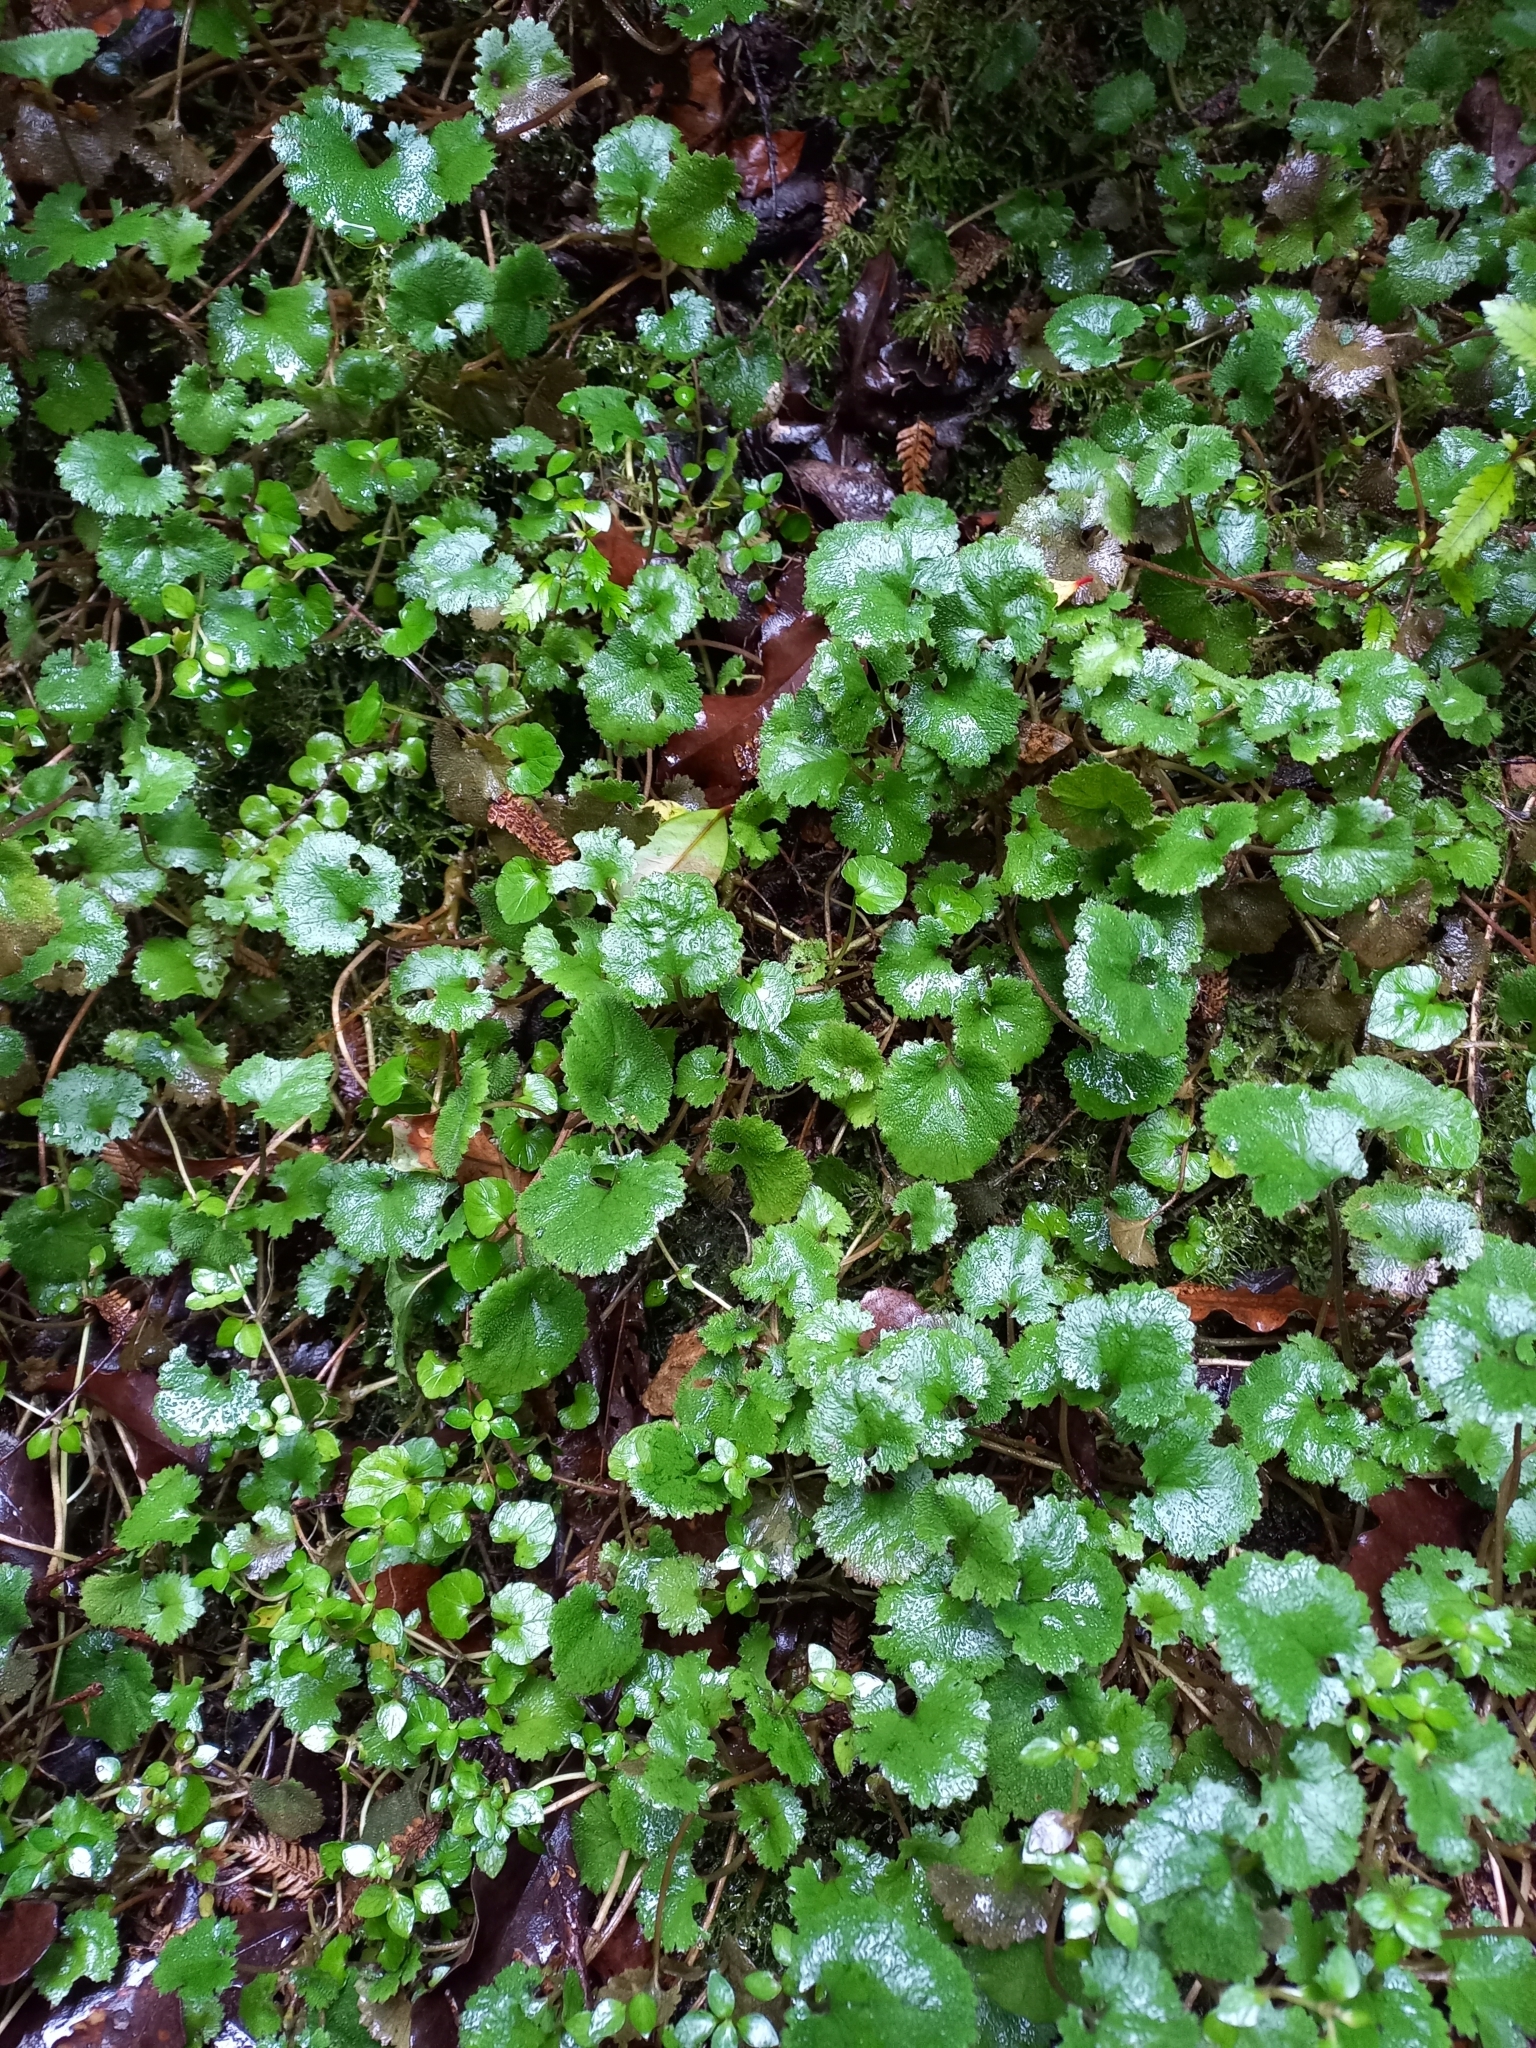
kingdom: Plantae
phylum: Tracheophyta
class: Magnoliopsida
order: Gunnerales
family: Gunneraceae
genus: Gunnera
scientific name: Gunnera monoica
